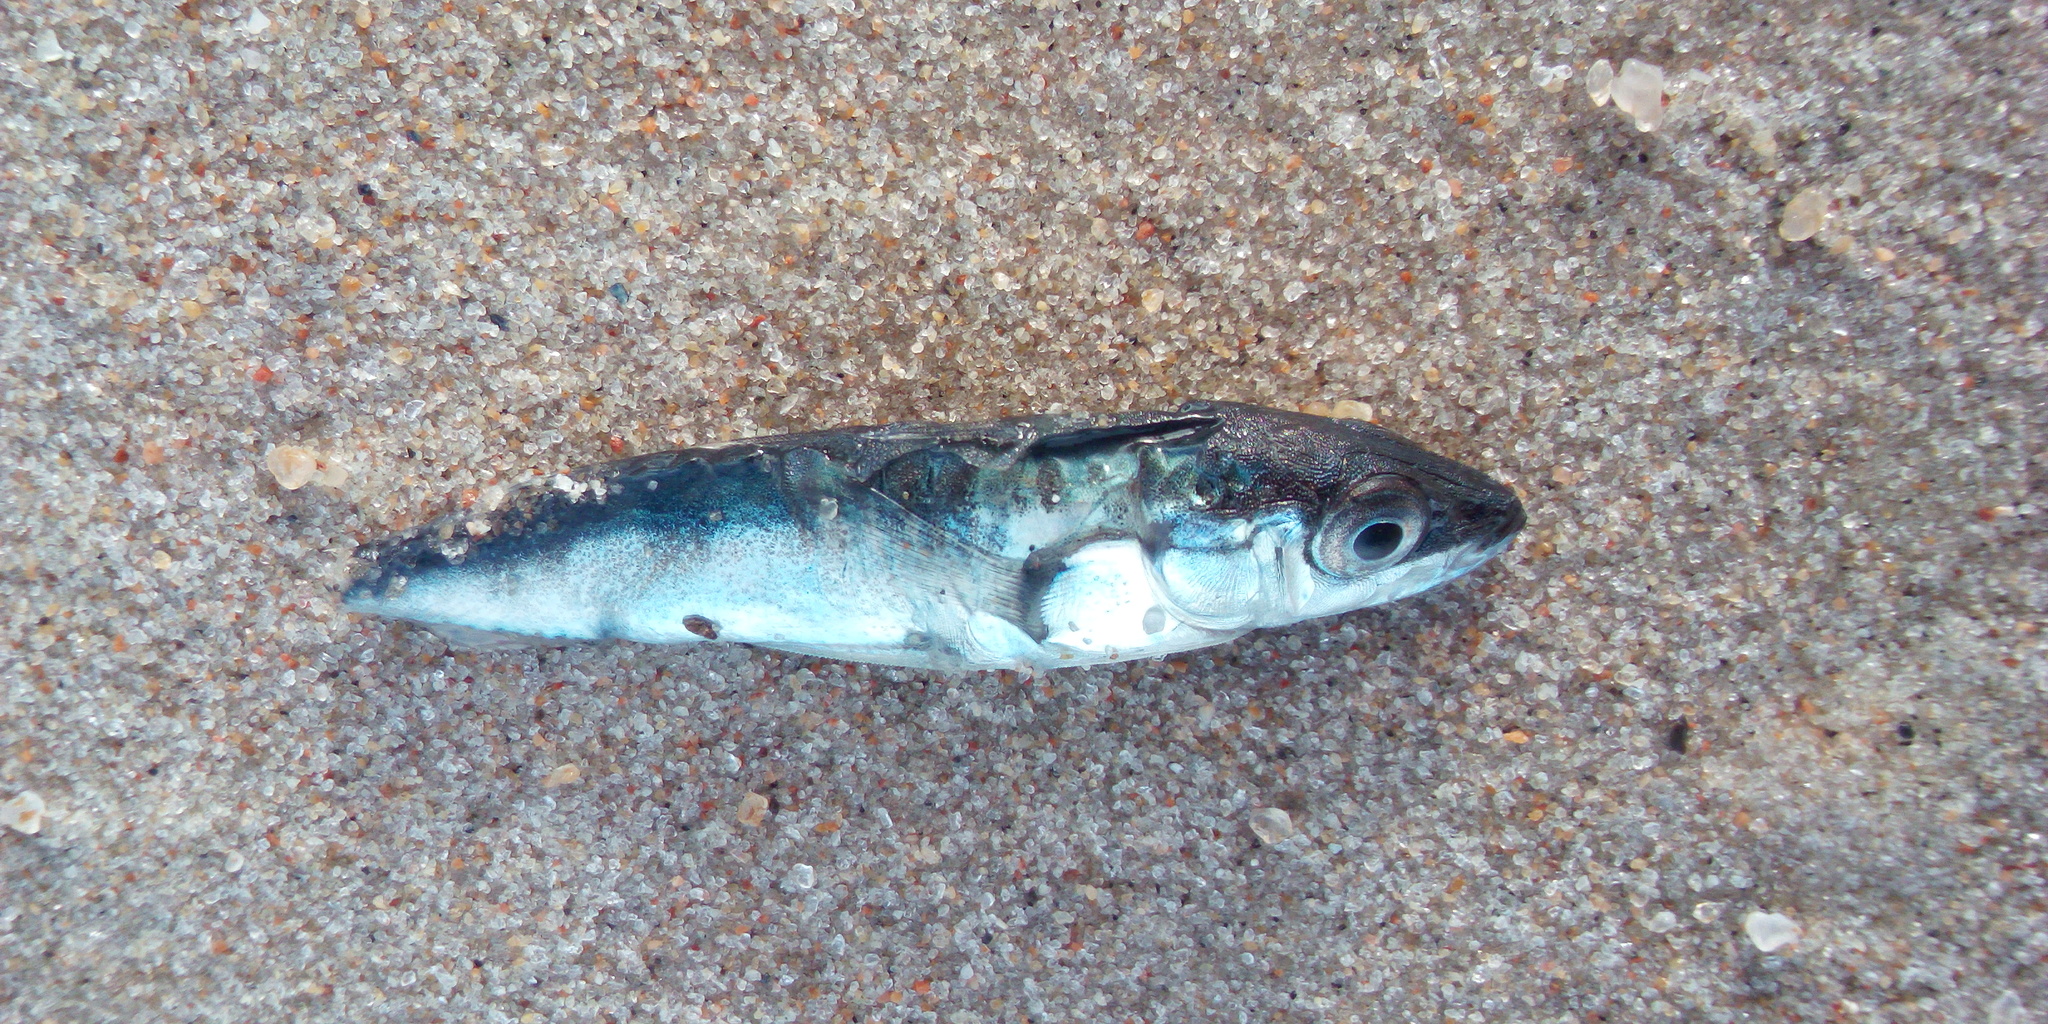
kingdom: Animalia
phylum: Chordata
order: Gasterosteiformes
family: Gasterosteidae
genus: Gasterosteus
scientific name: Gasterosteus aculeatus
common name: Three-spined stickleback
